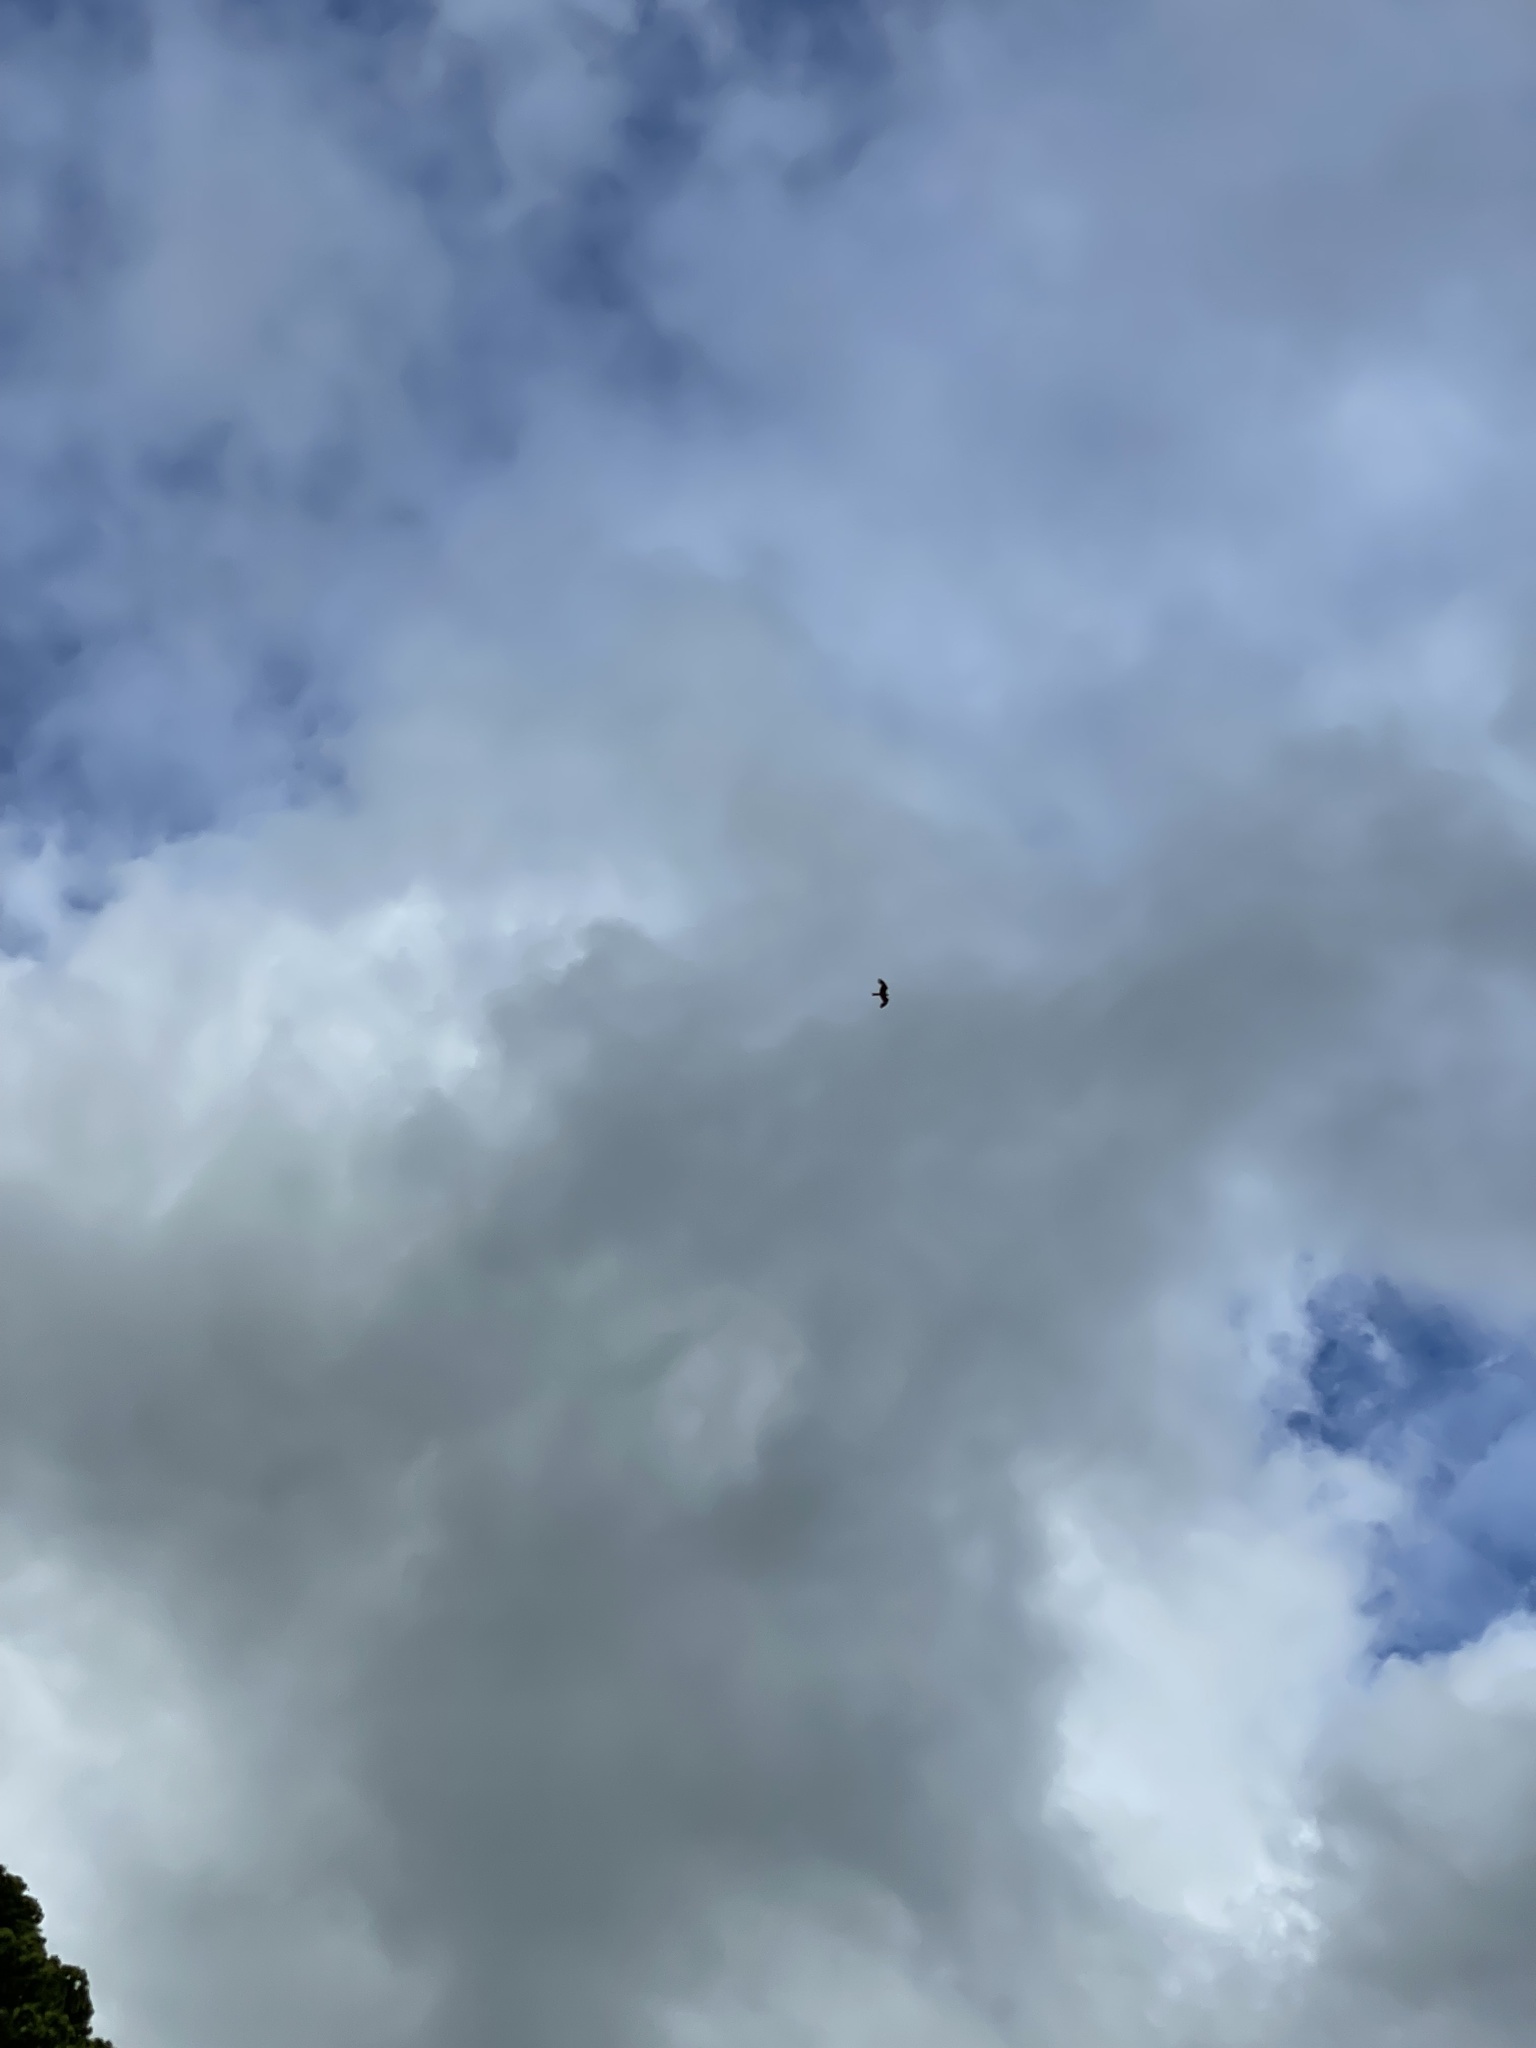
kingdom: Animalia
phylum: Chordata
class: Aves
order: Accipitriformes
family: Accipitridae
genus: Milvus
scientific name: Milvus milvus
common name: Red kite
